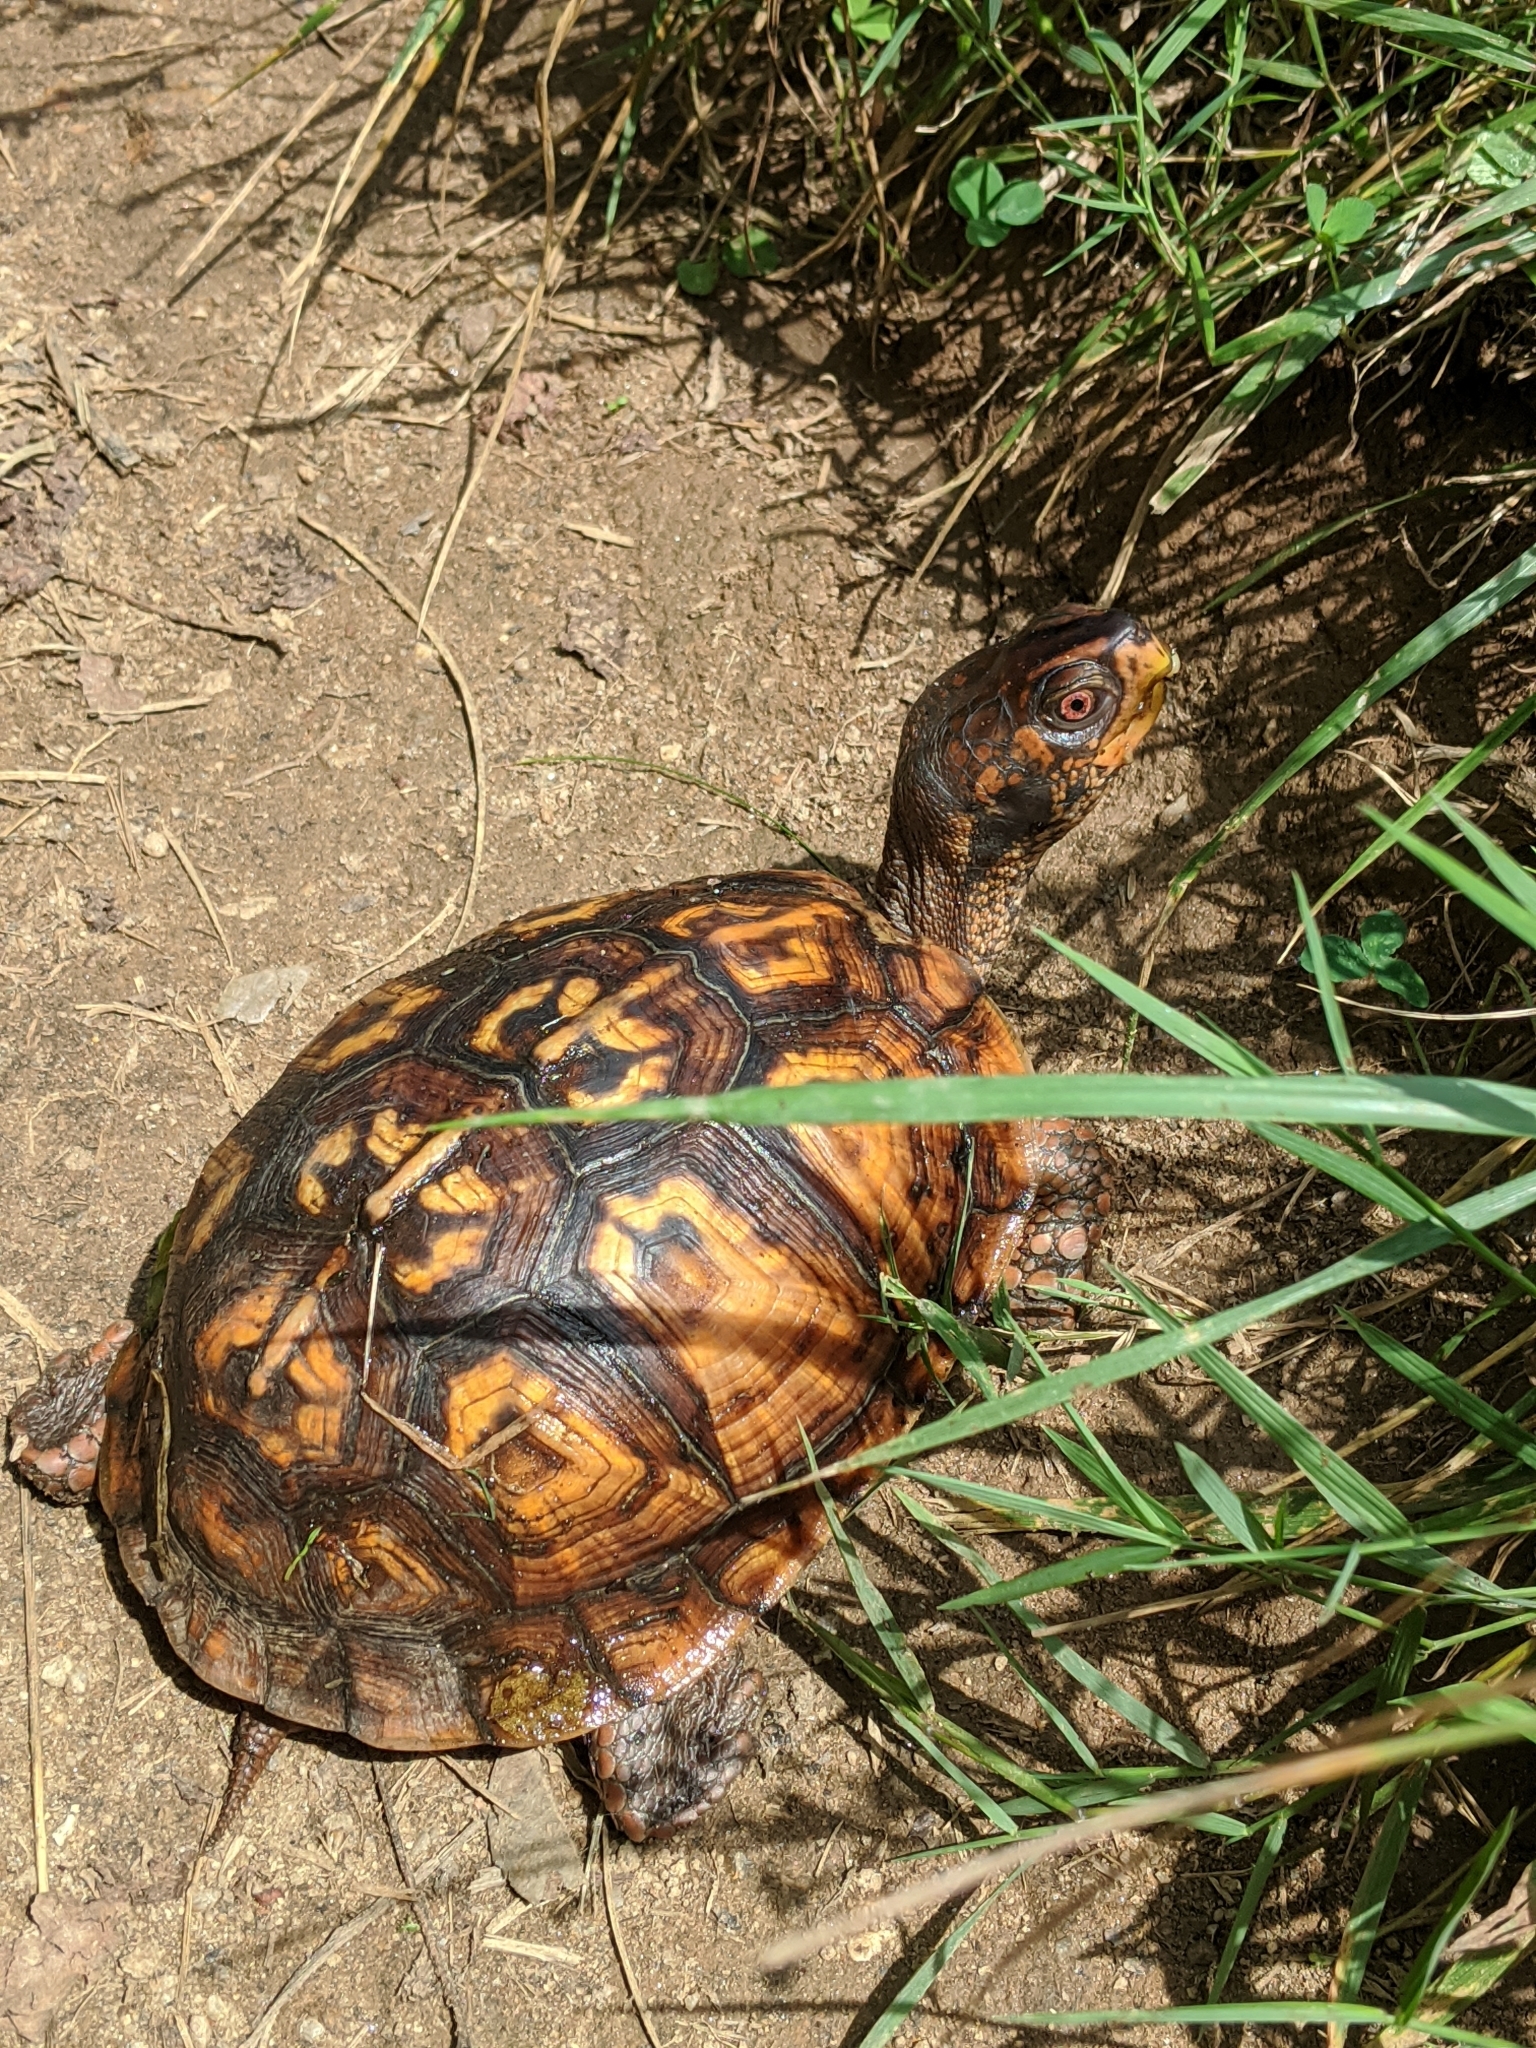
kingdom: Animalia
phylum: Chordata
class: Testudines
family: Emydidae
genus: Terrapene
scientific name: Terrapene carolina
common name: Common box turtle
